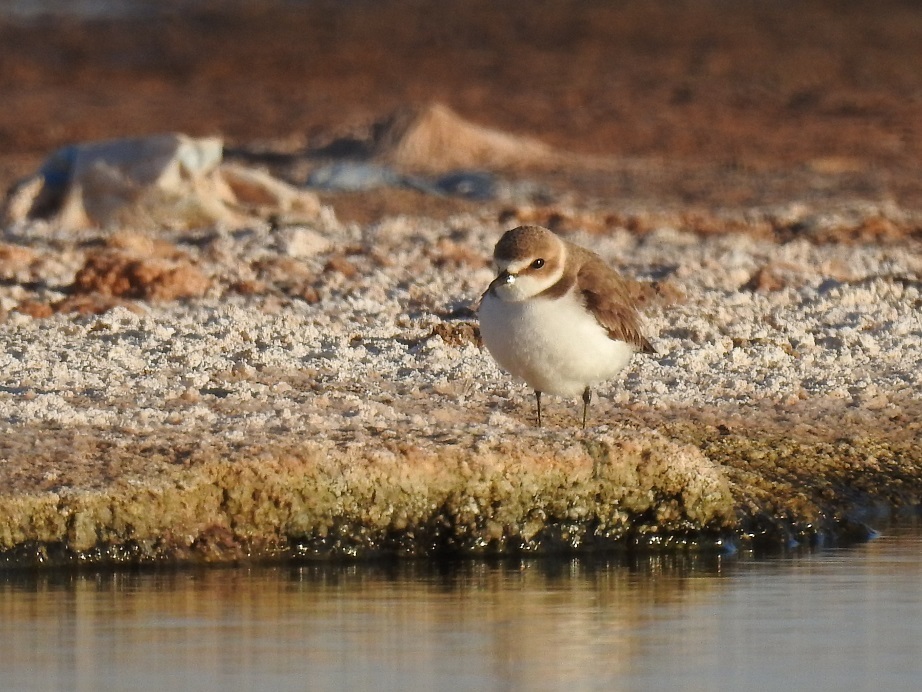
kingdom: Animalia
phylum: Chordata
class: Aves
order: Charadriiformes
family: Charadriidae
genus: Charadrius
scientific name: Charadrius alexandrinus
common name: Kentish plover
